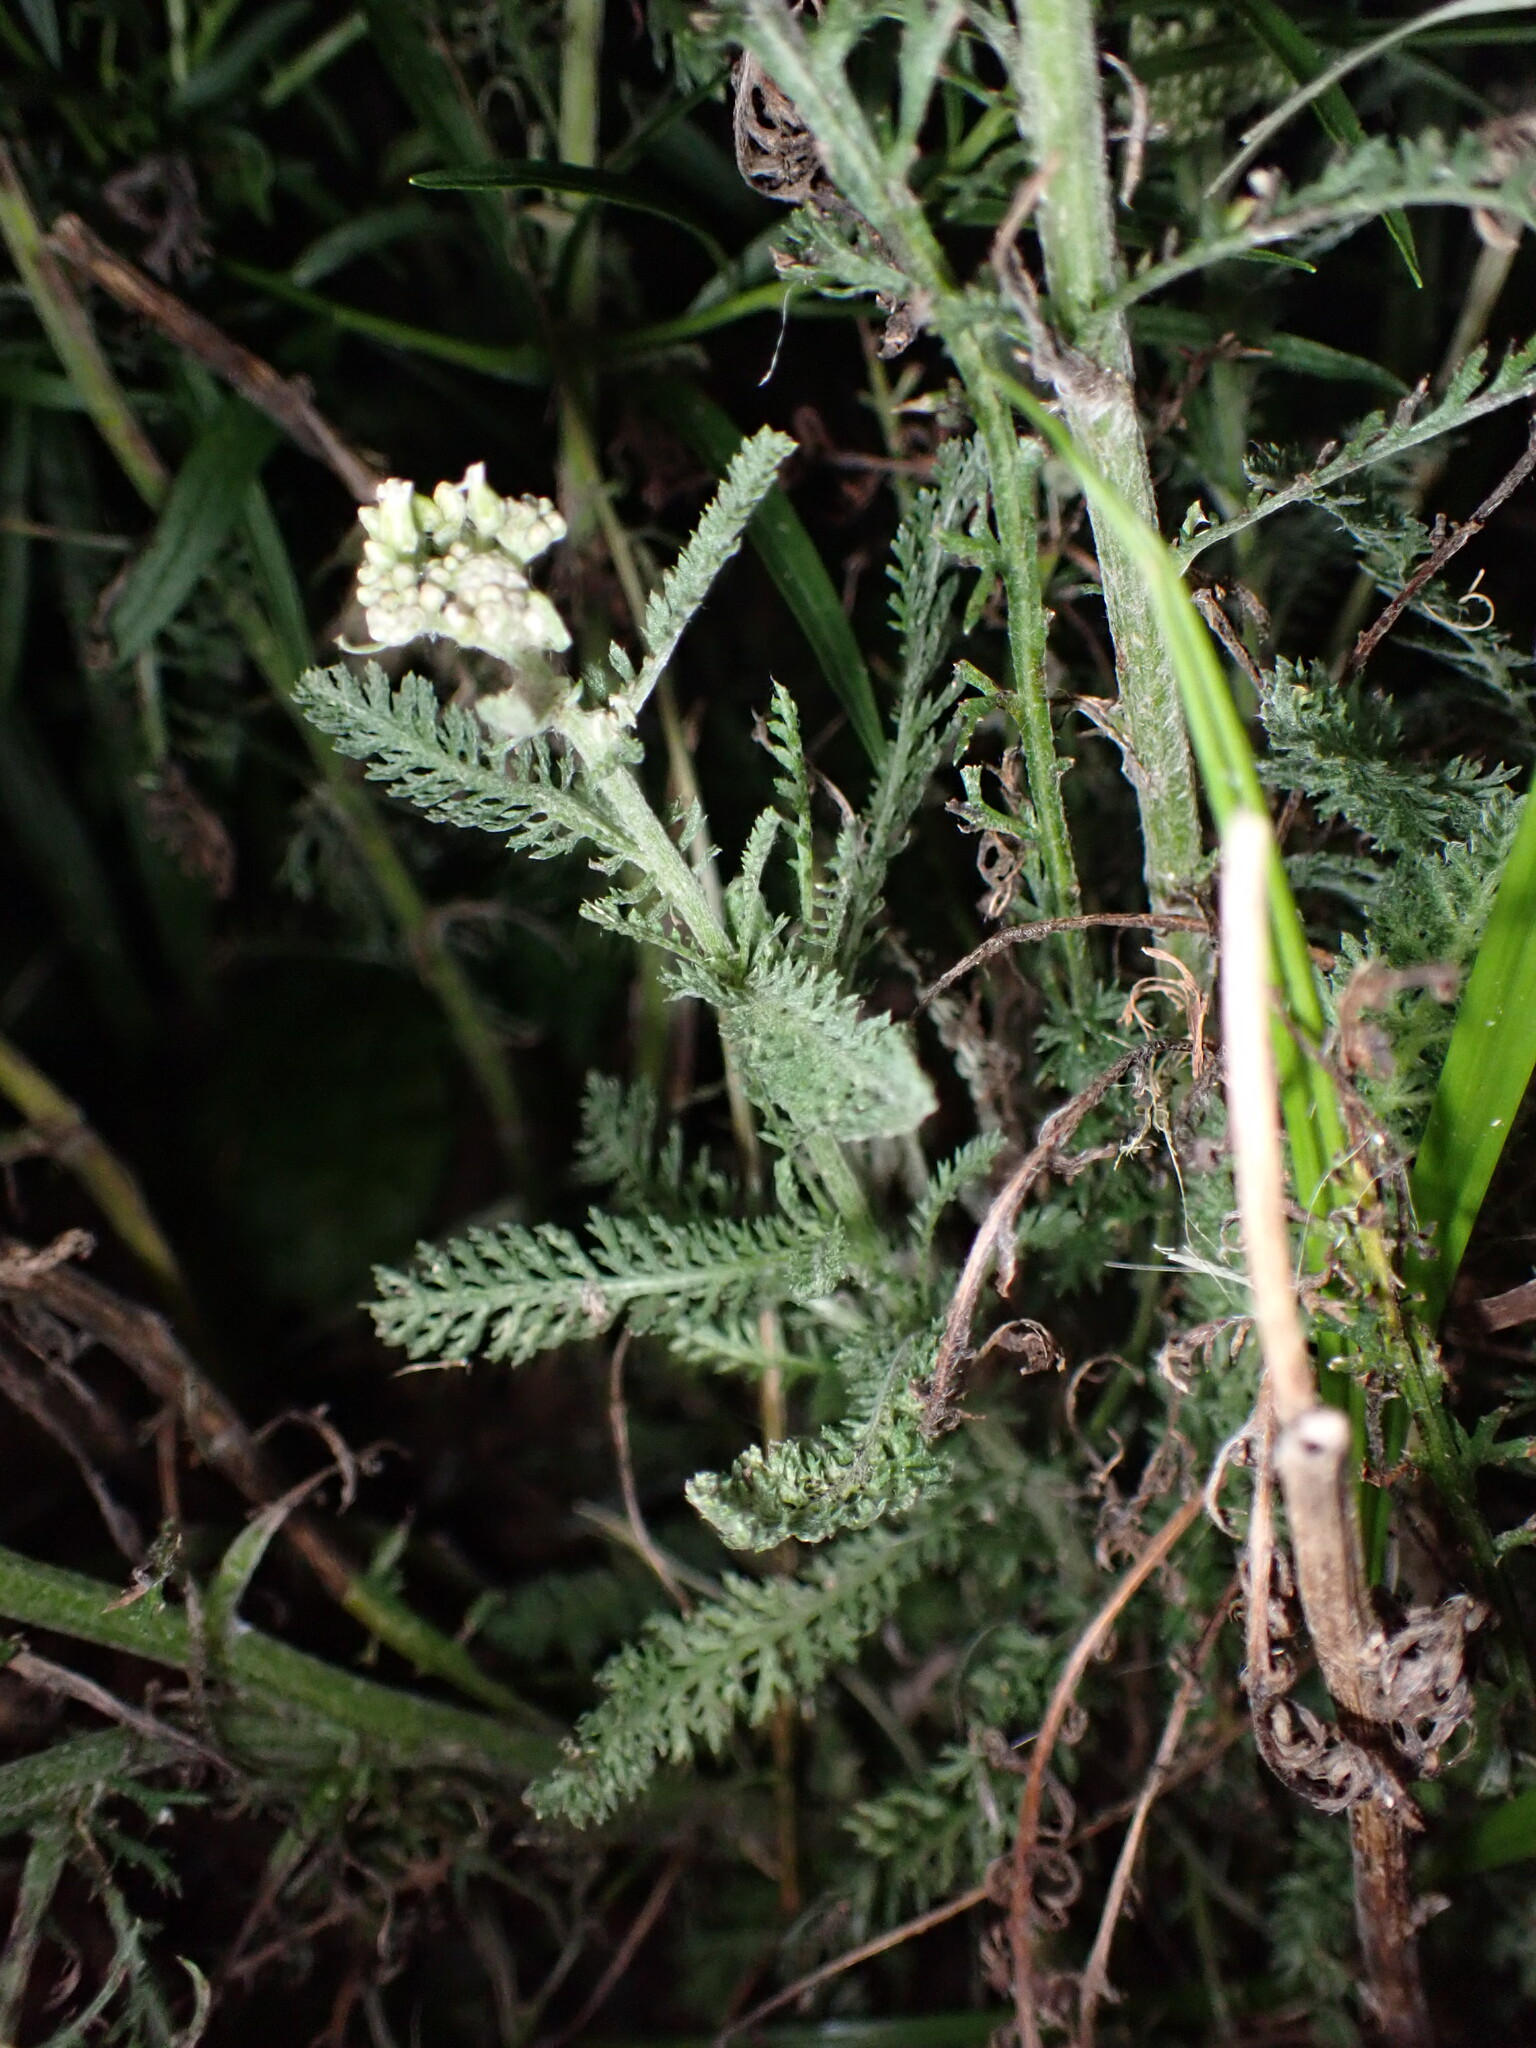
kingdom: Plantae
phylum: Tracheophyta
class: Magnoliopsida
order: Asterales
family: Asteraceae
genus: Achillea
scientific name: Achillea millefolium
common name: Yarrow
